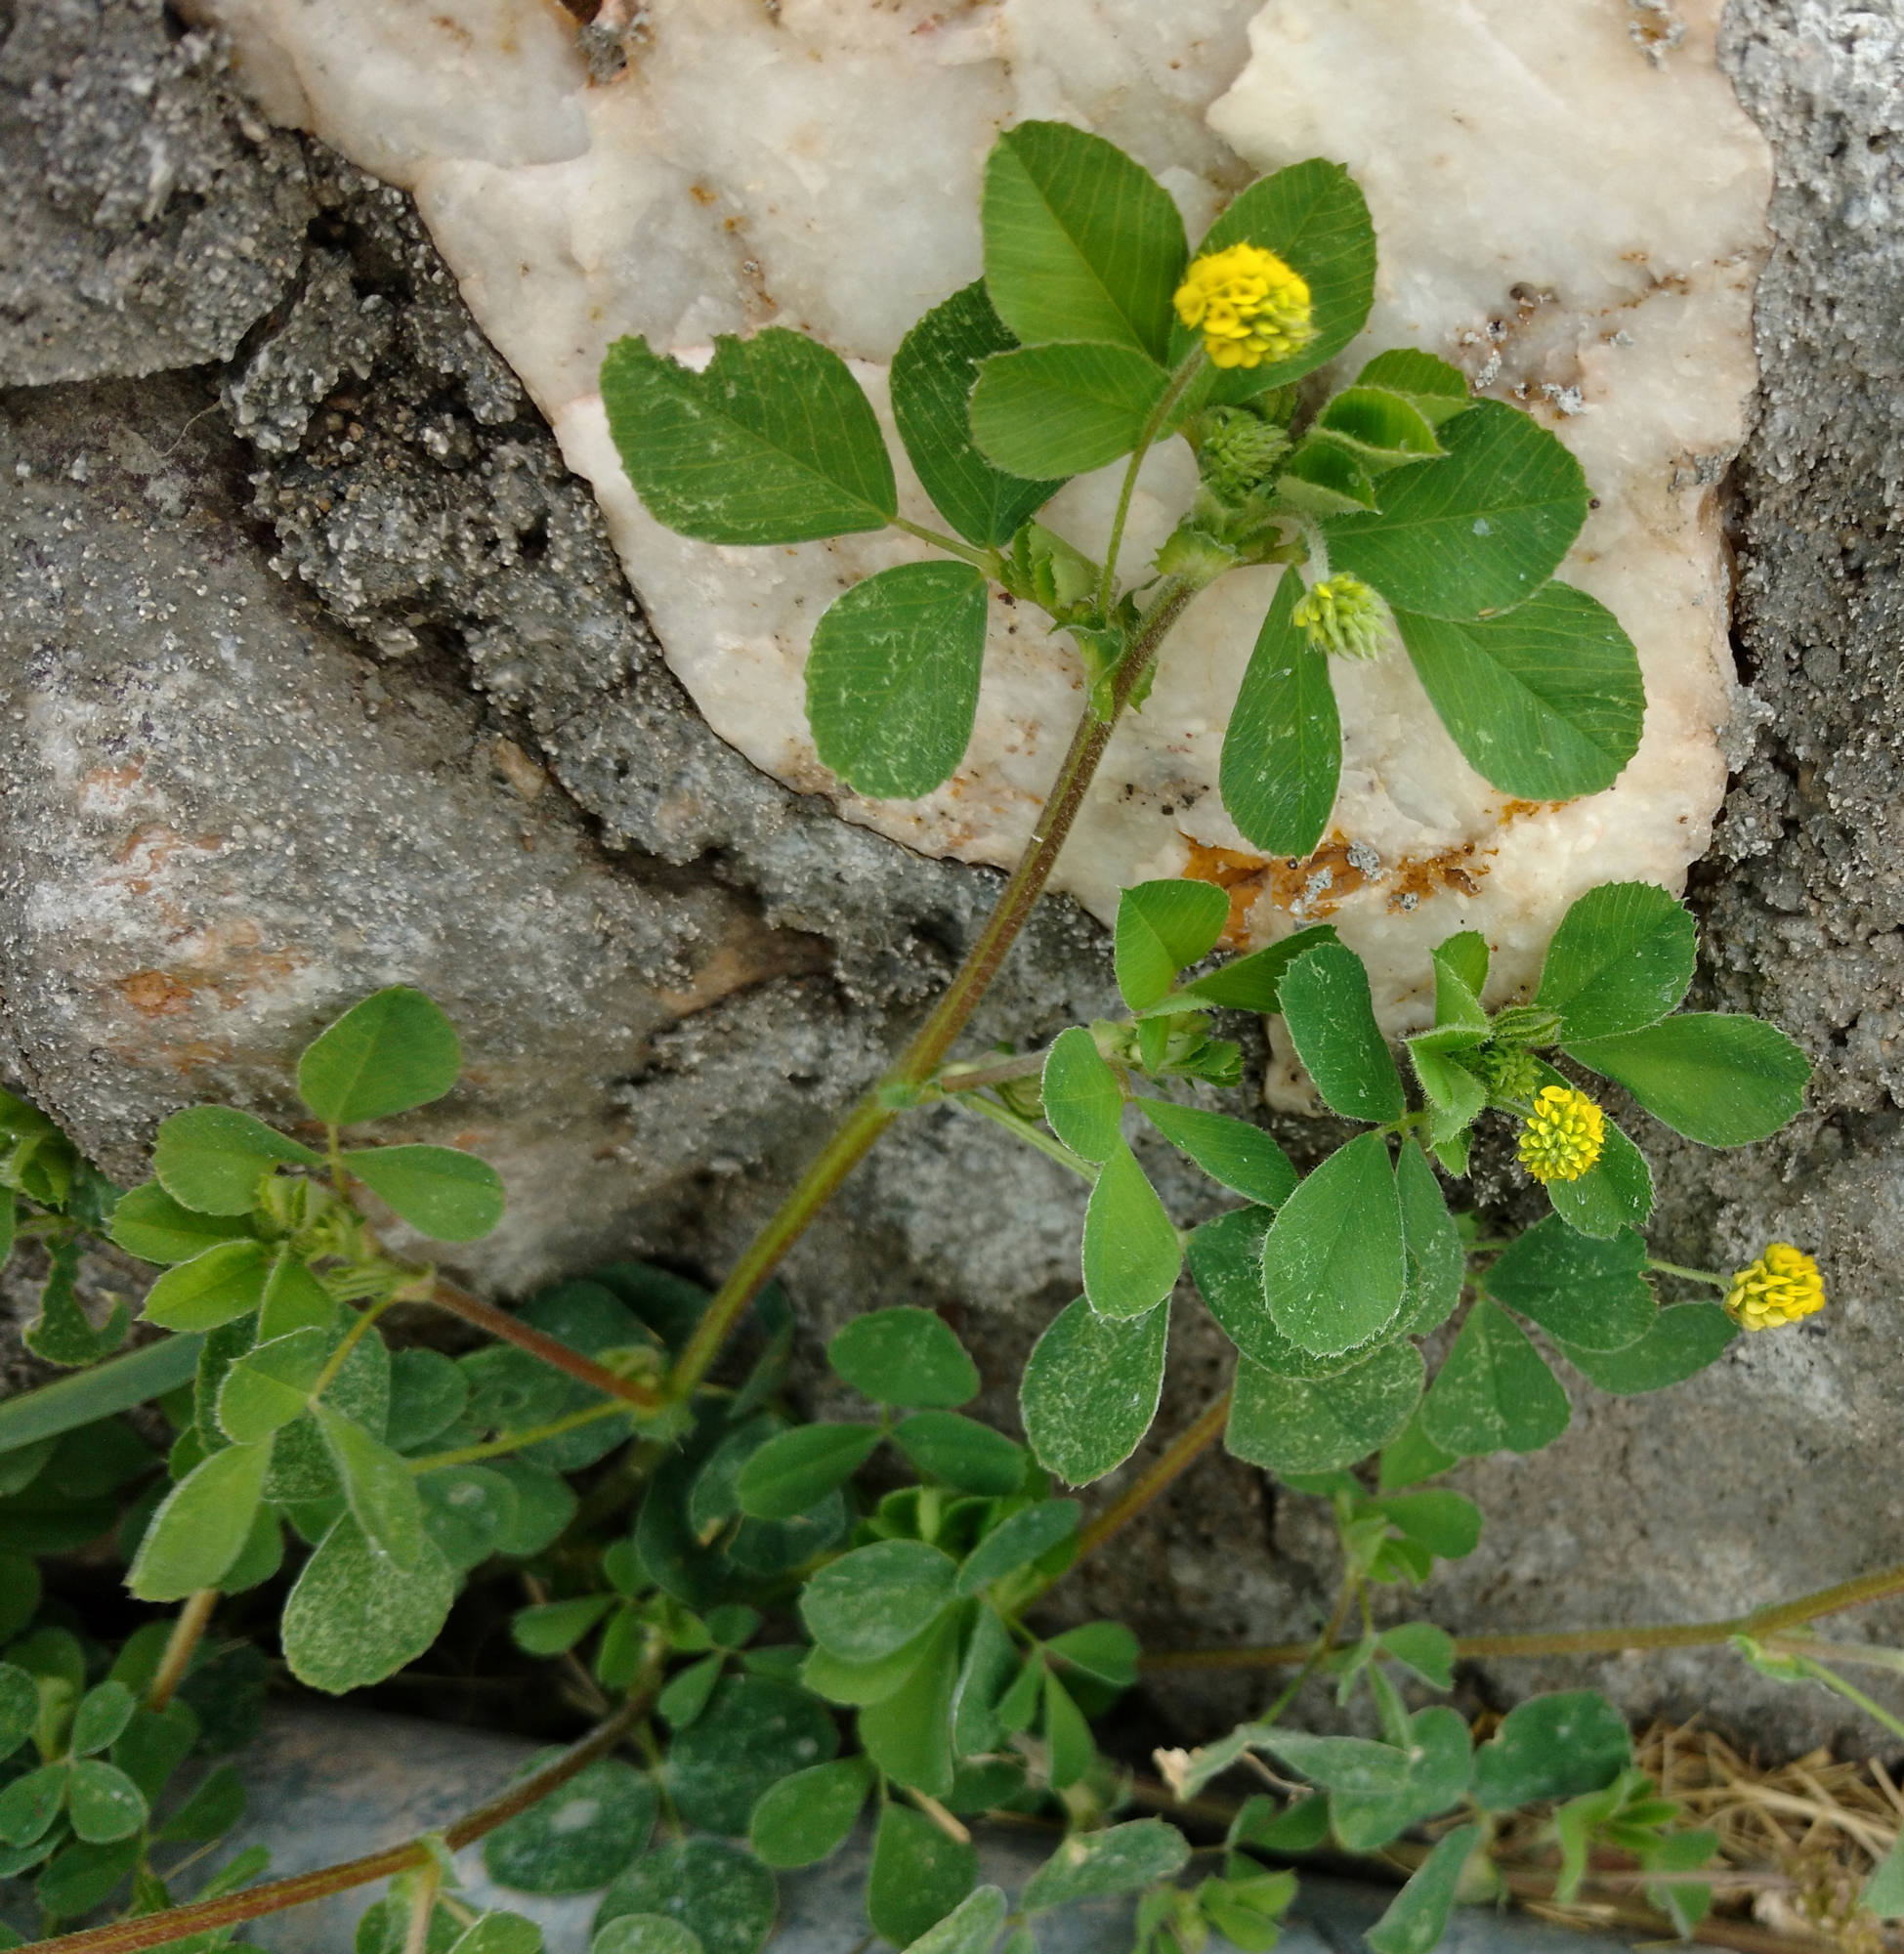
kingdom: Plantae
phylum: Tracheophyta
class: Magnoliopsida
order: Fabales
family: Fabaceae
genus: Medicago
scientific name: Medicago lupulina
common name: Black medick
